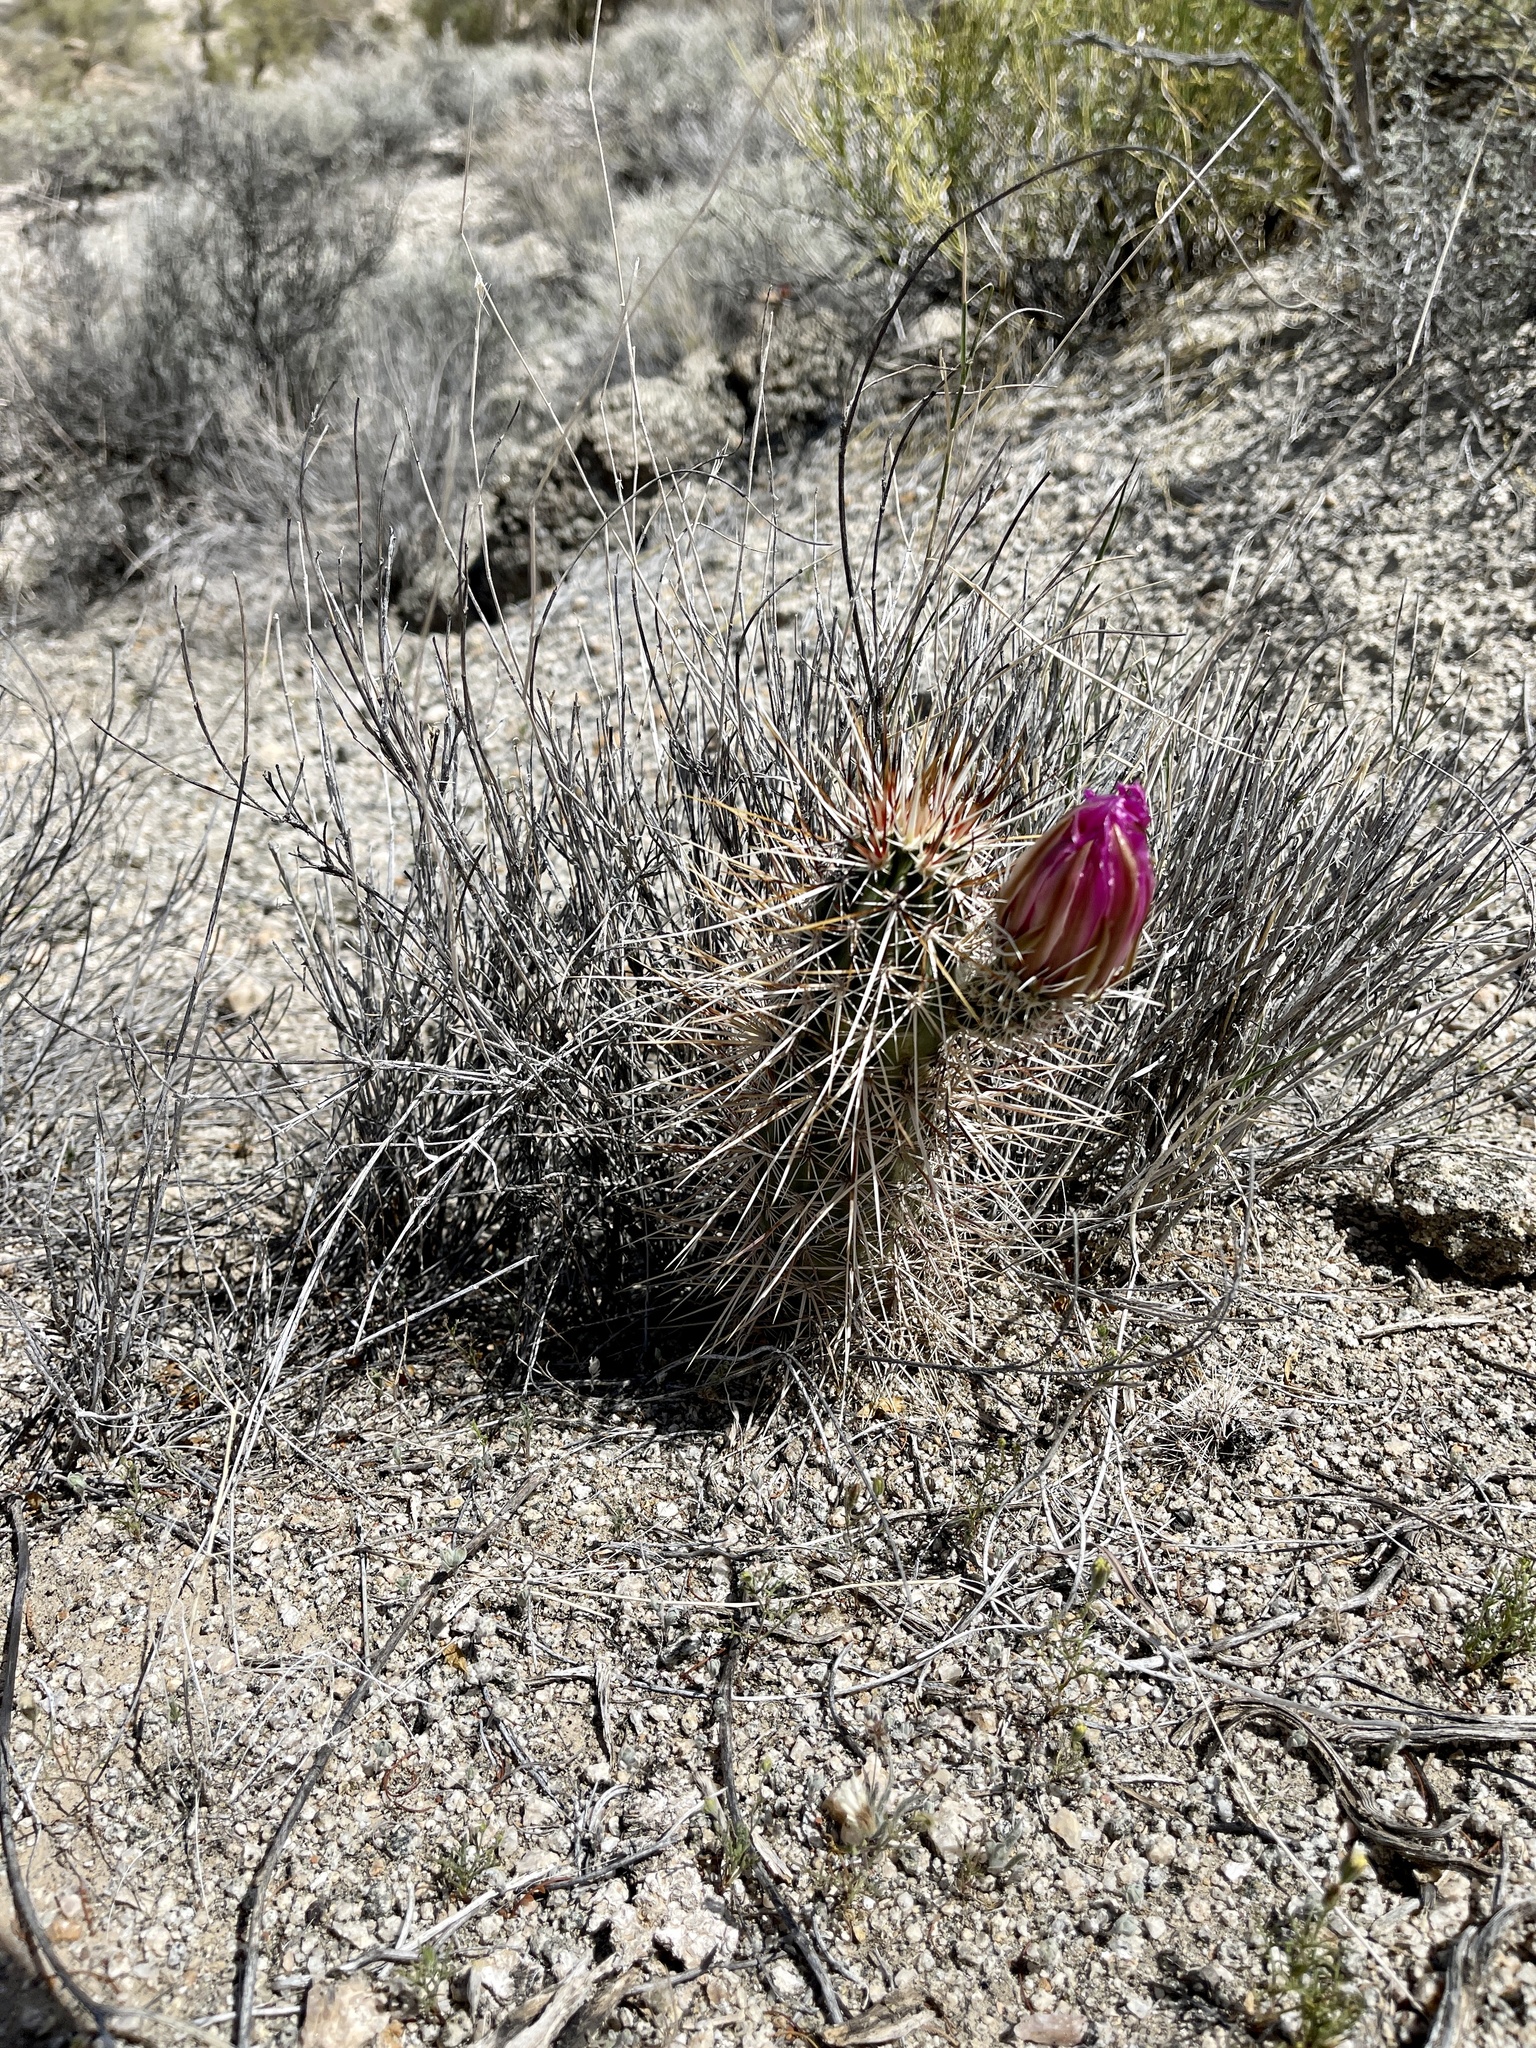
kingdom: Plantae
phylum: Tracheophyta
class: Magnoliopsida
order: Caryophyllales
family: Cactaceae
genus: Echinocereus
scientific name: Echinocereus engelmannii
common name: Engelmann's hedgehog cactus
